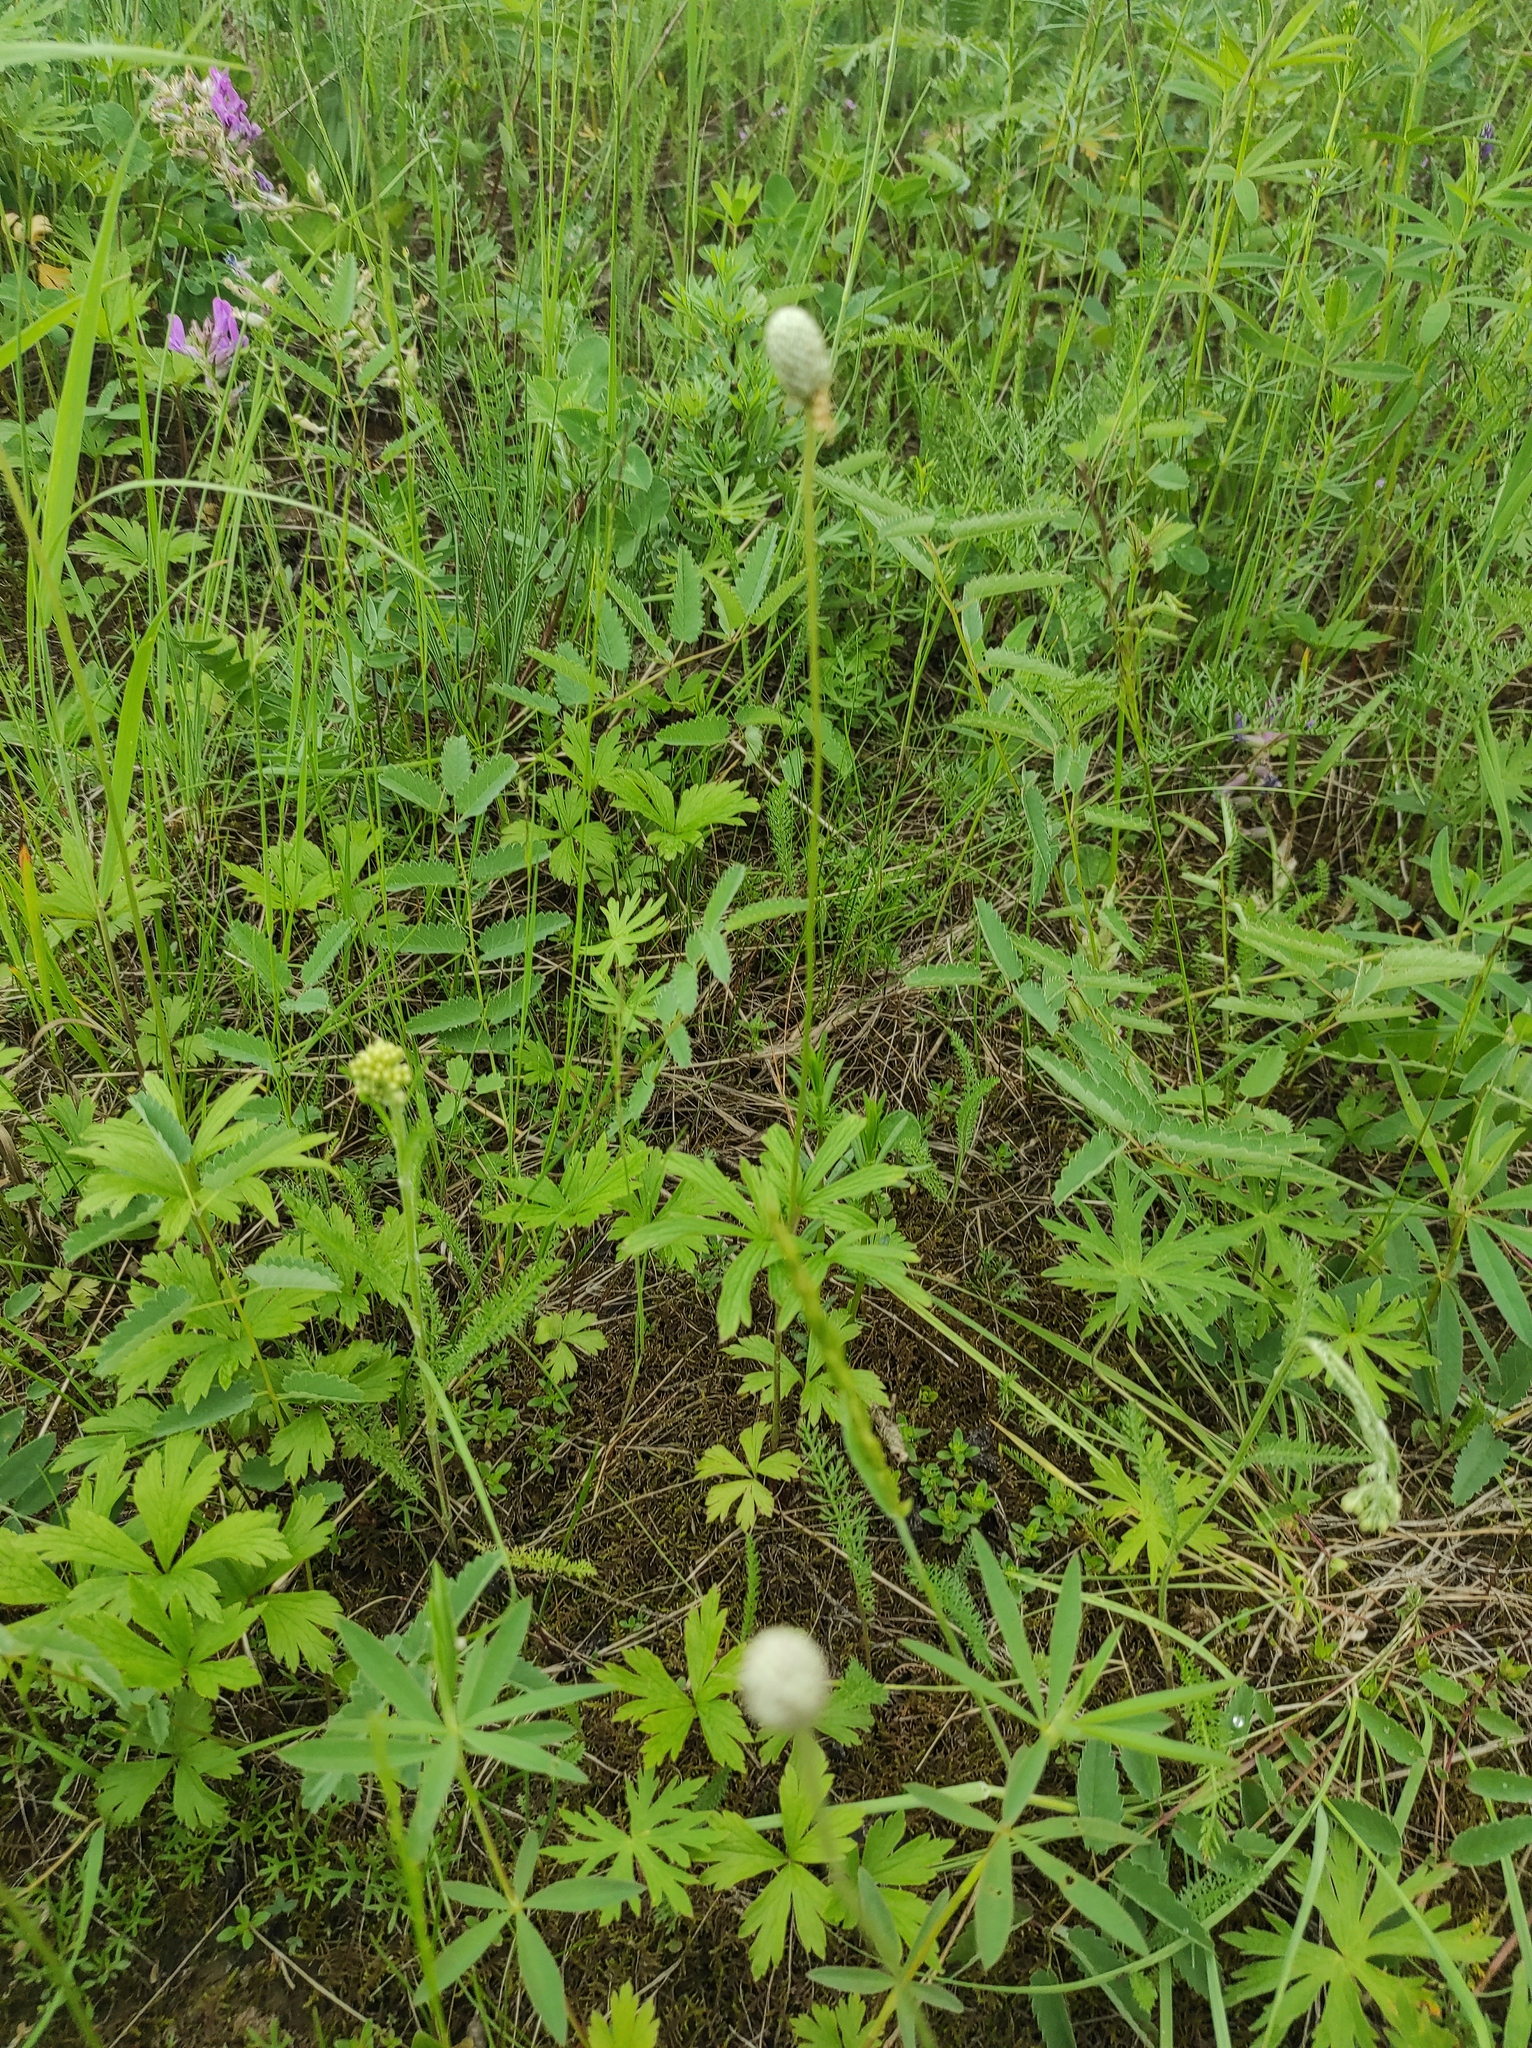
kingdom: Plantae
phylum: Tracheophyta
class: Magnoliopsida
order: Ranunculales
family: Ranunculaceae
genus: Anemone
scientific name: Anemone sylvestris
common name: Snowdrop anemone
